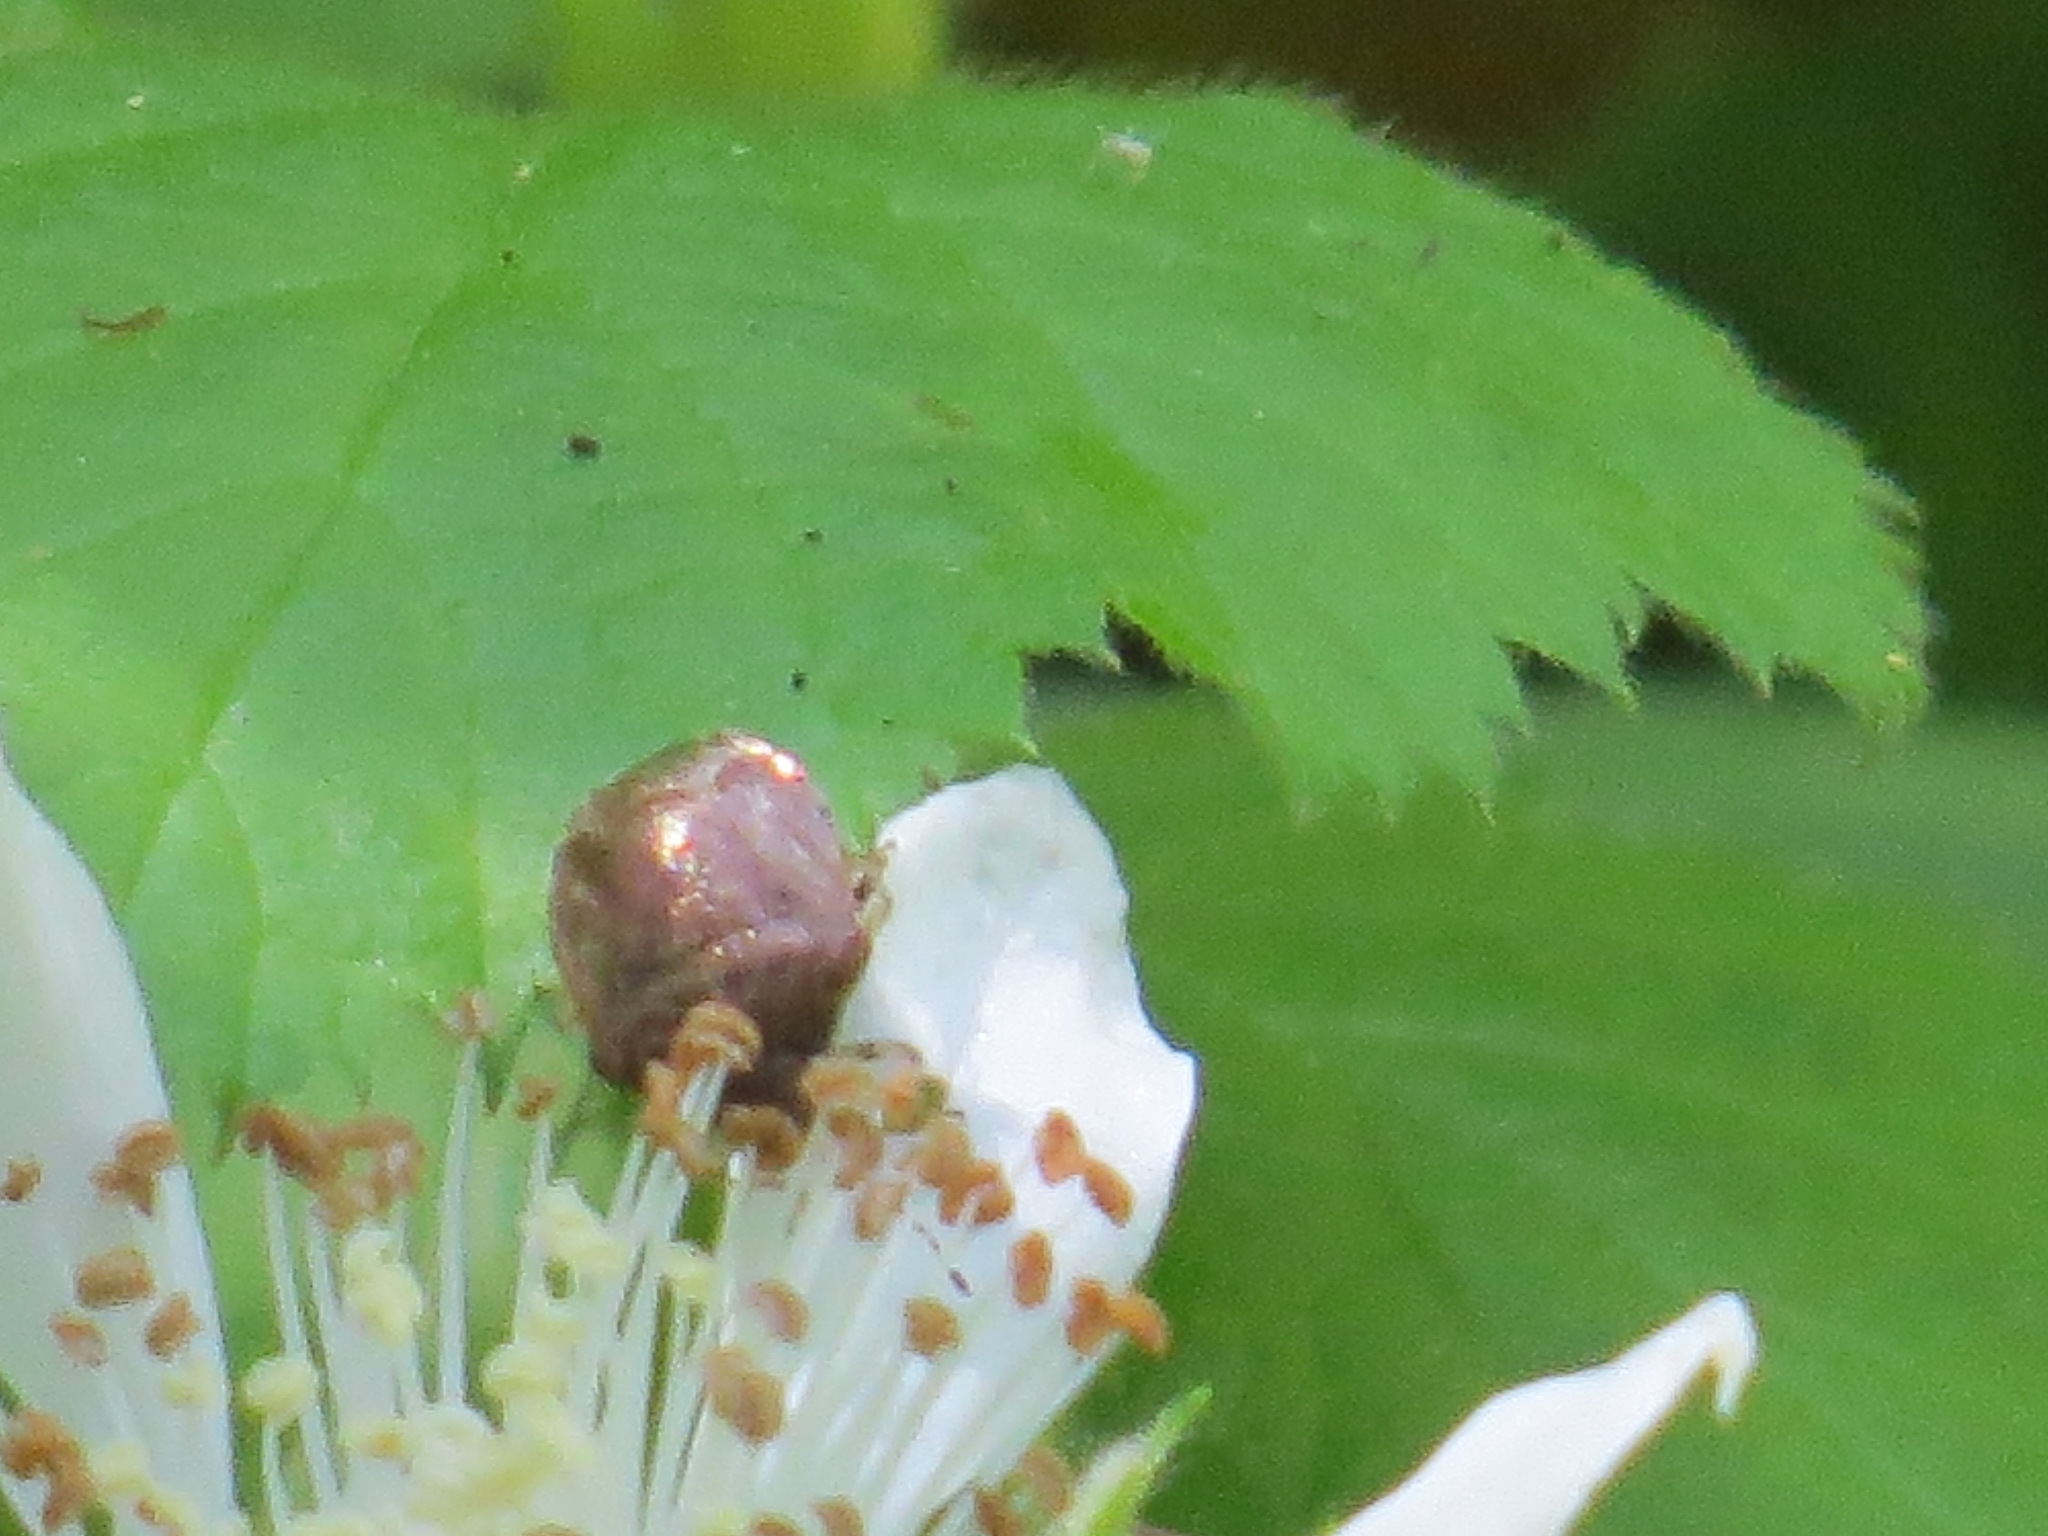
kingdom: Animalia
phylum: Arthropoda
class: Insecta
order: Hemiptera
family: Pentatomidae
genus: Cosmopepla
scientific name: Cosmopepla intergressus
